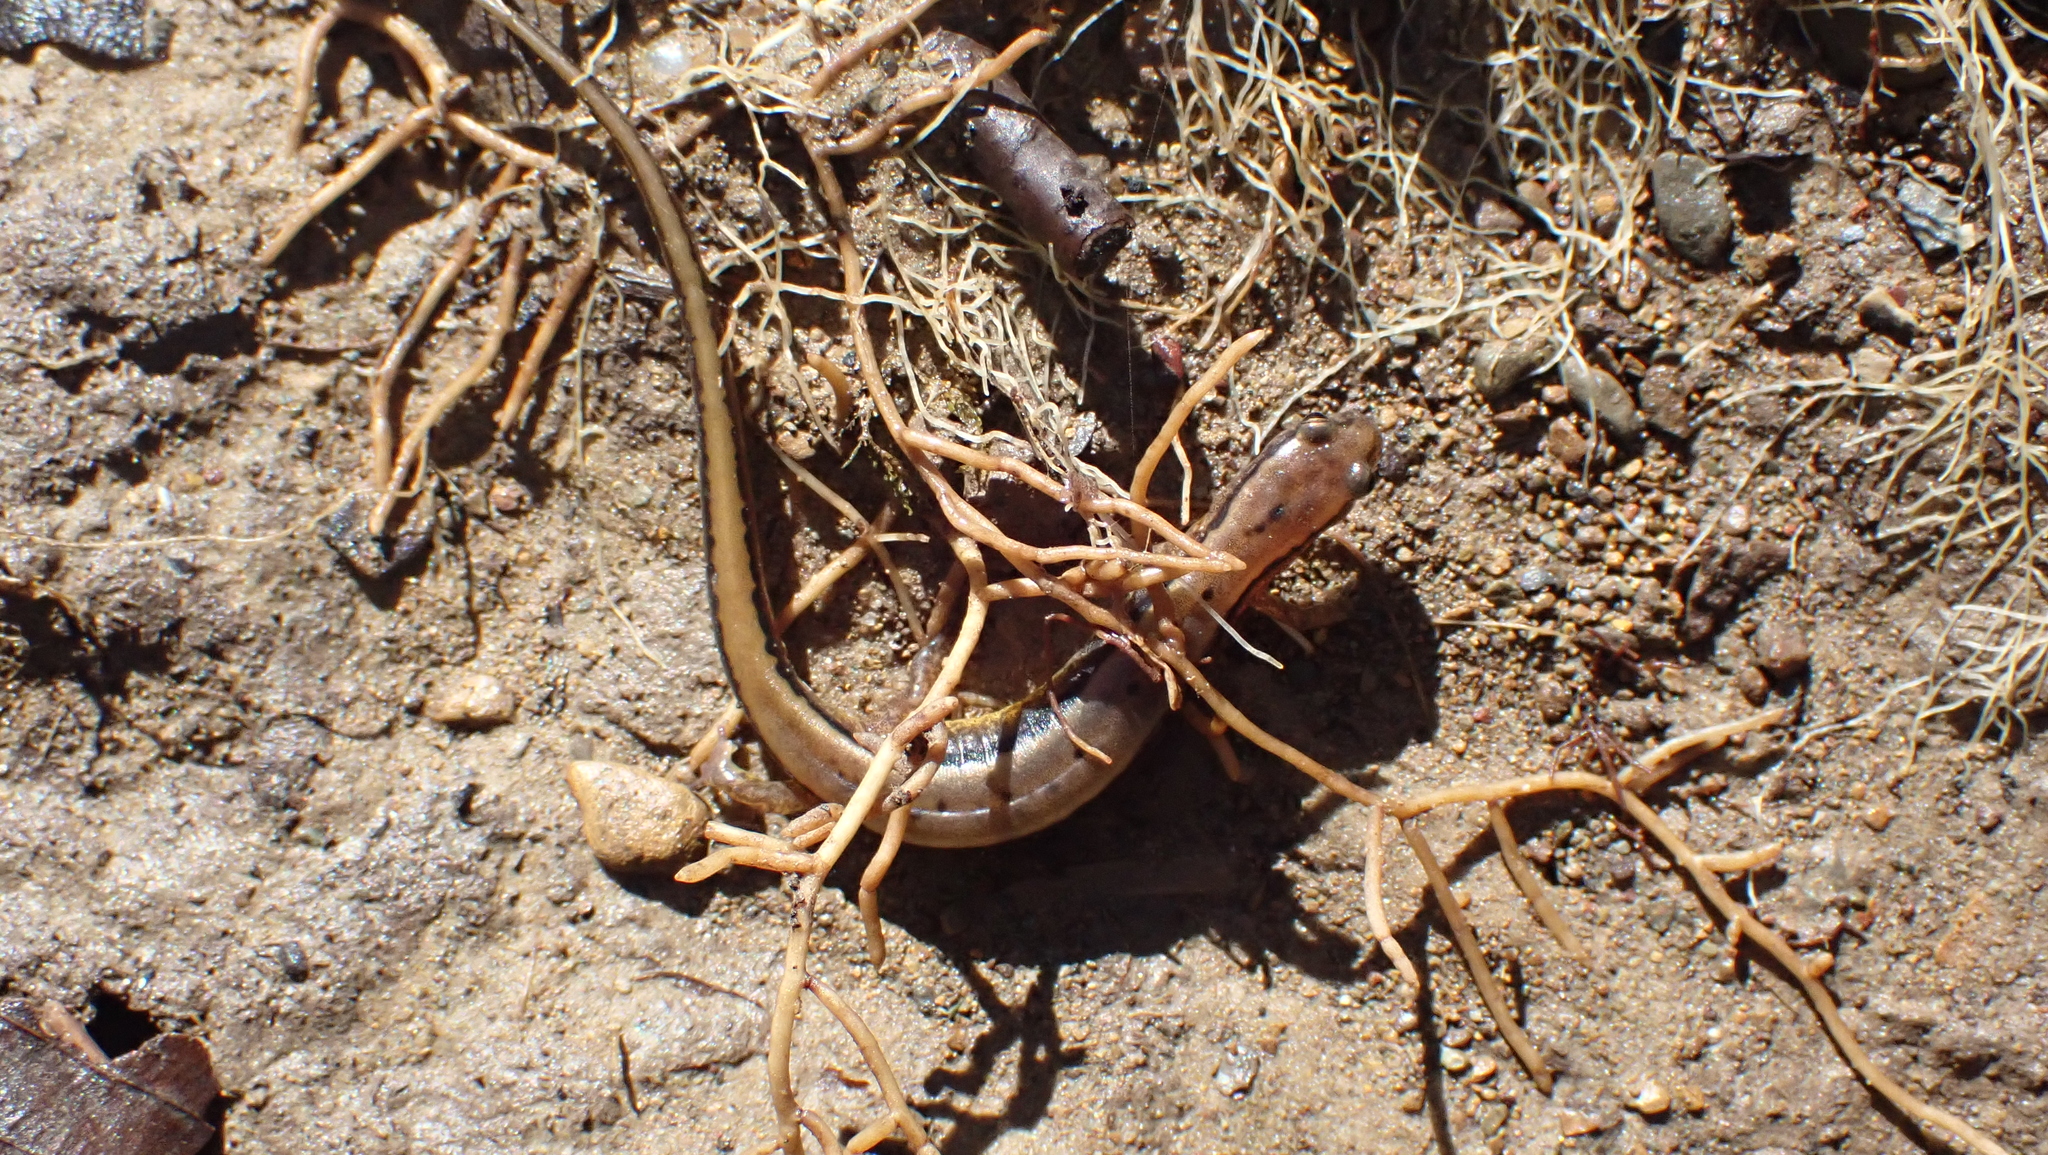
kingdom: Animalia
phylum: Chordata
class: Amphibia
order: Caudata
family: Plethodontidae
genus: Eurycea
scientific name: Eurycea cirrigera
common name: Southern two-lined salamander
